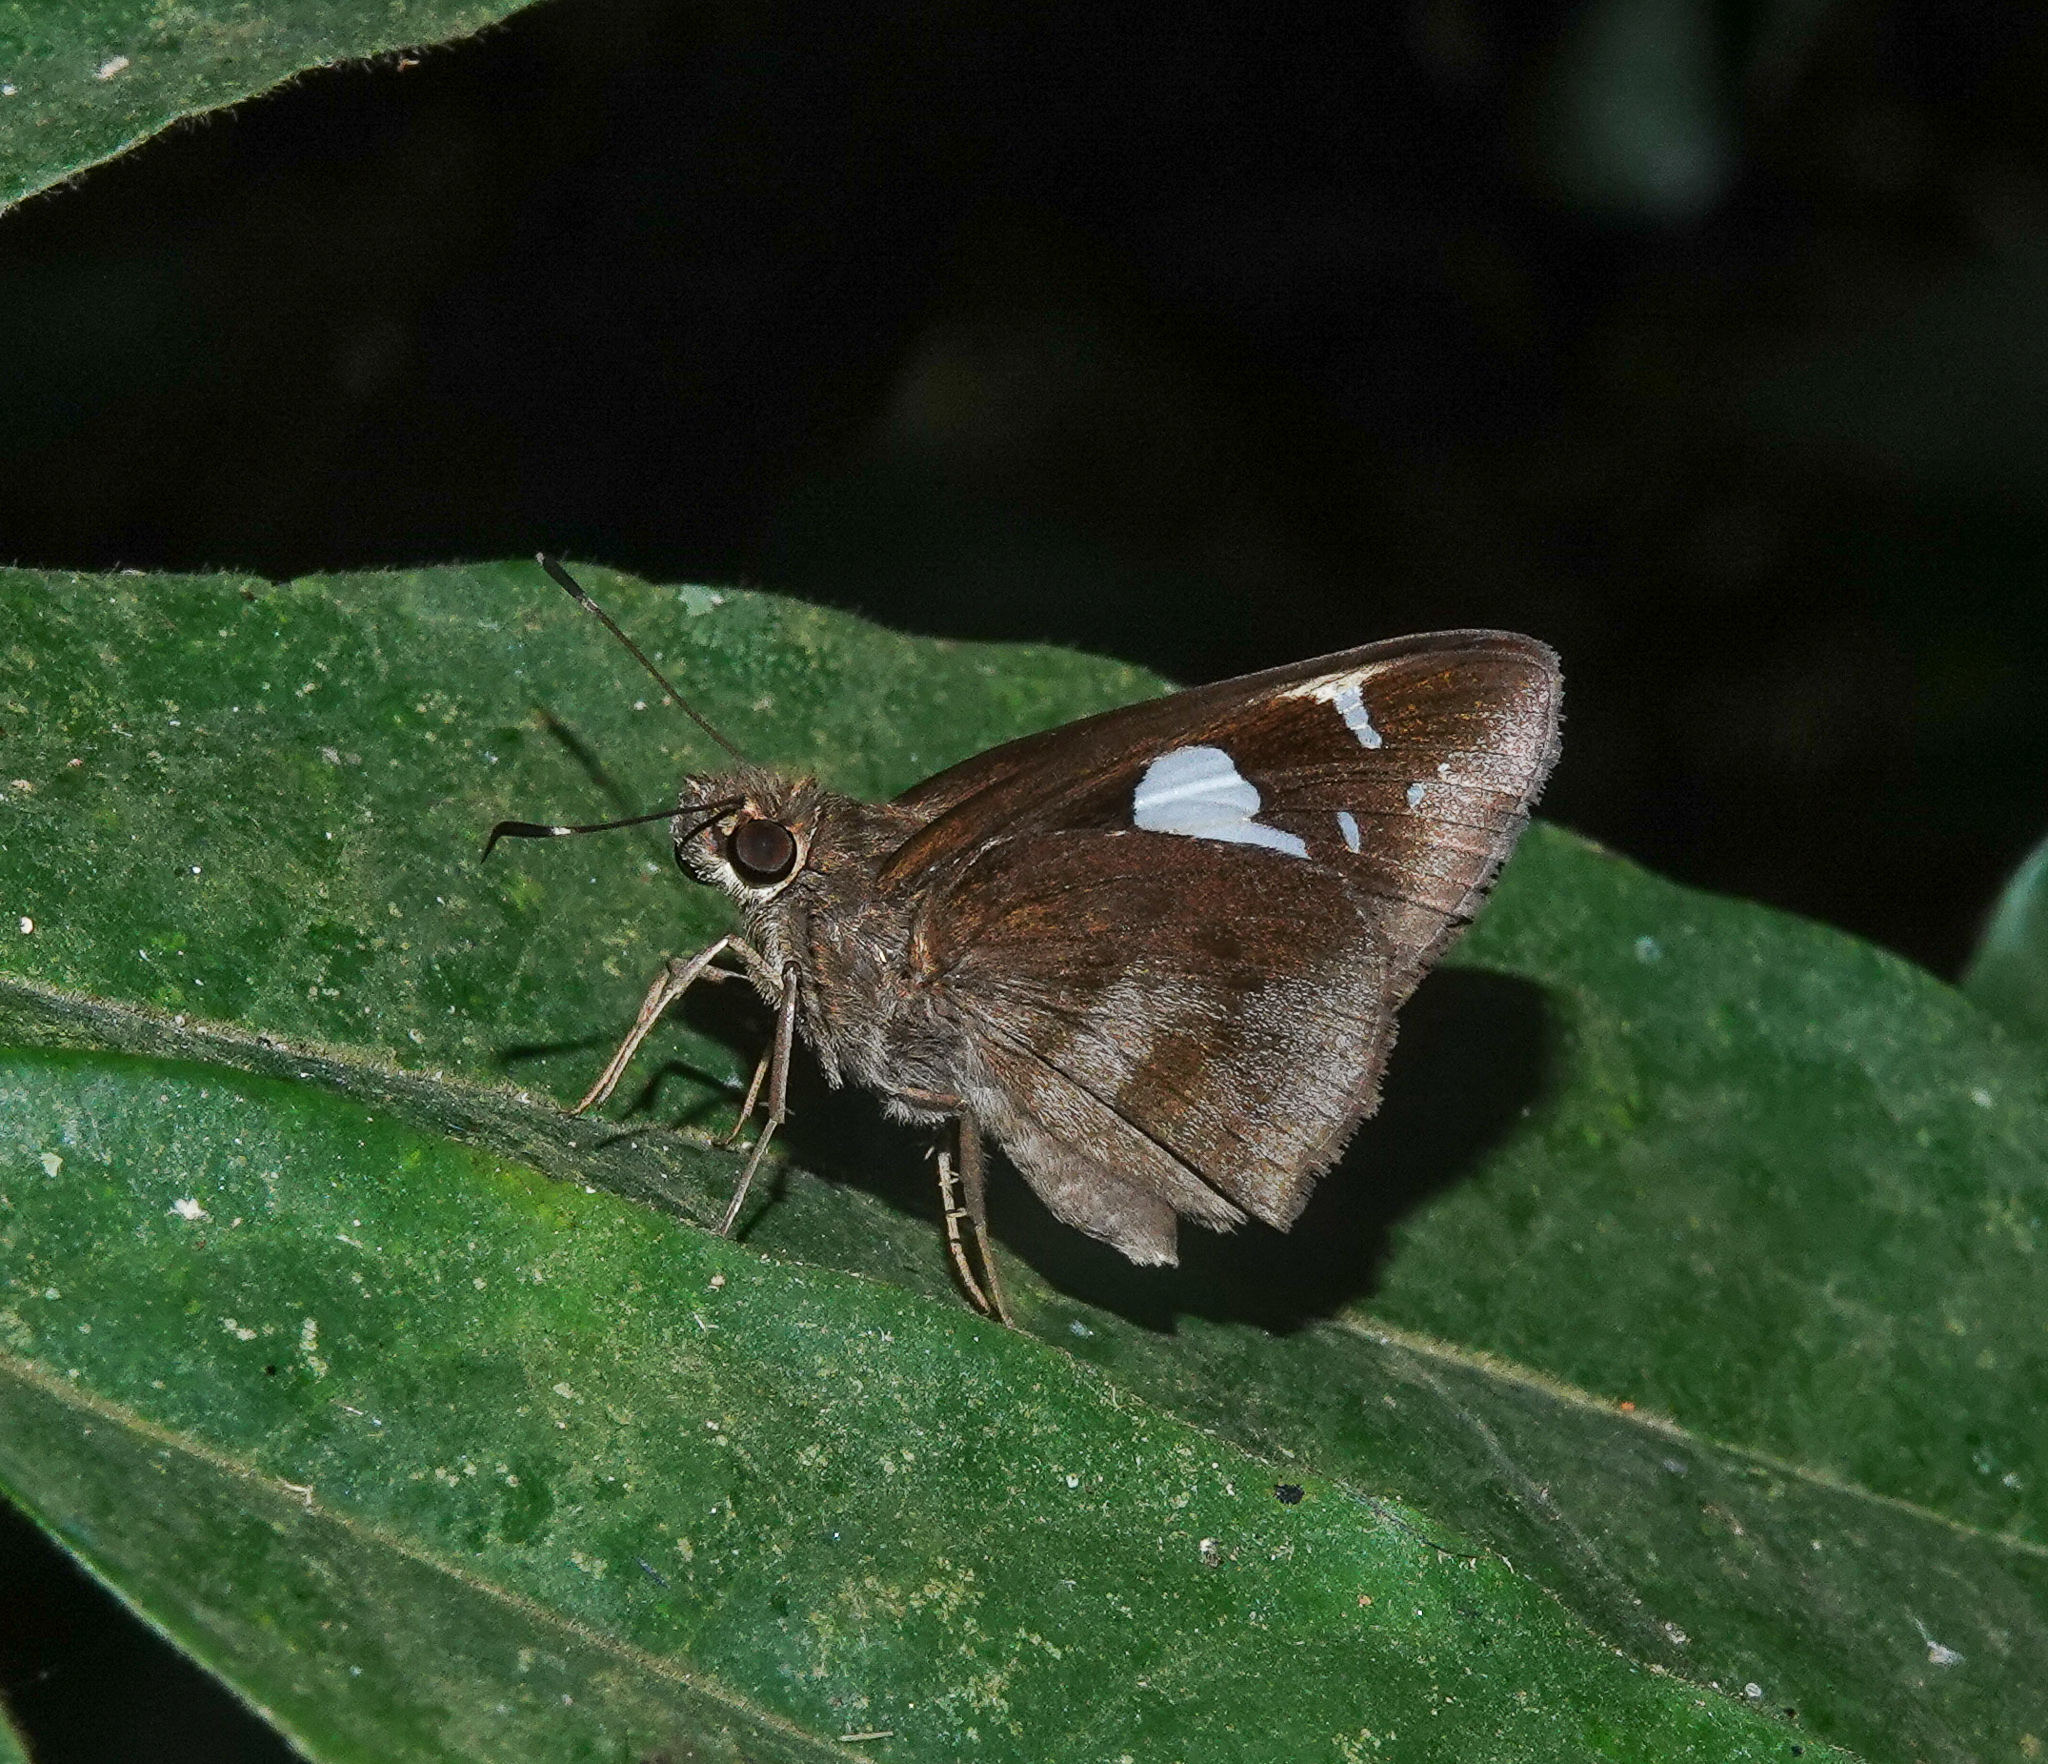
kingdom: Animalia
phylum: Arthropoda
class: Insecta
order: Lepidoptera
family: Hesperiidae
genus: Notocrypta
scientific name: Notocrypta curvifascia
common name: Restricted demon
